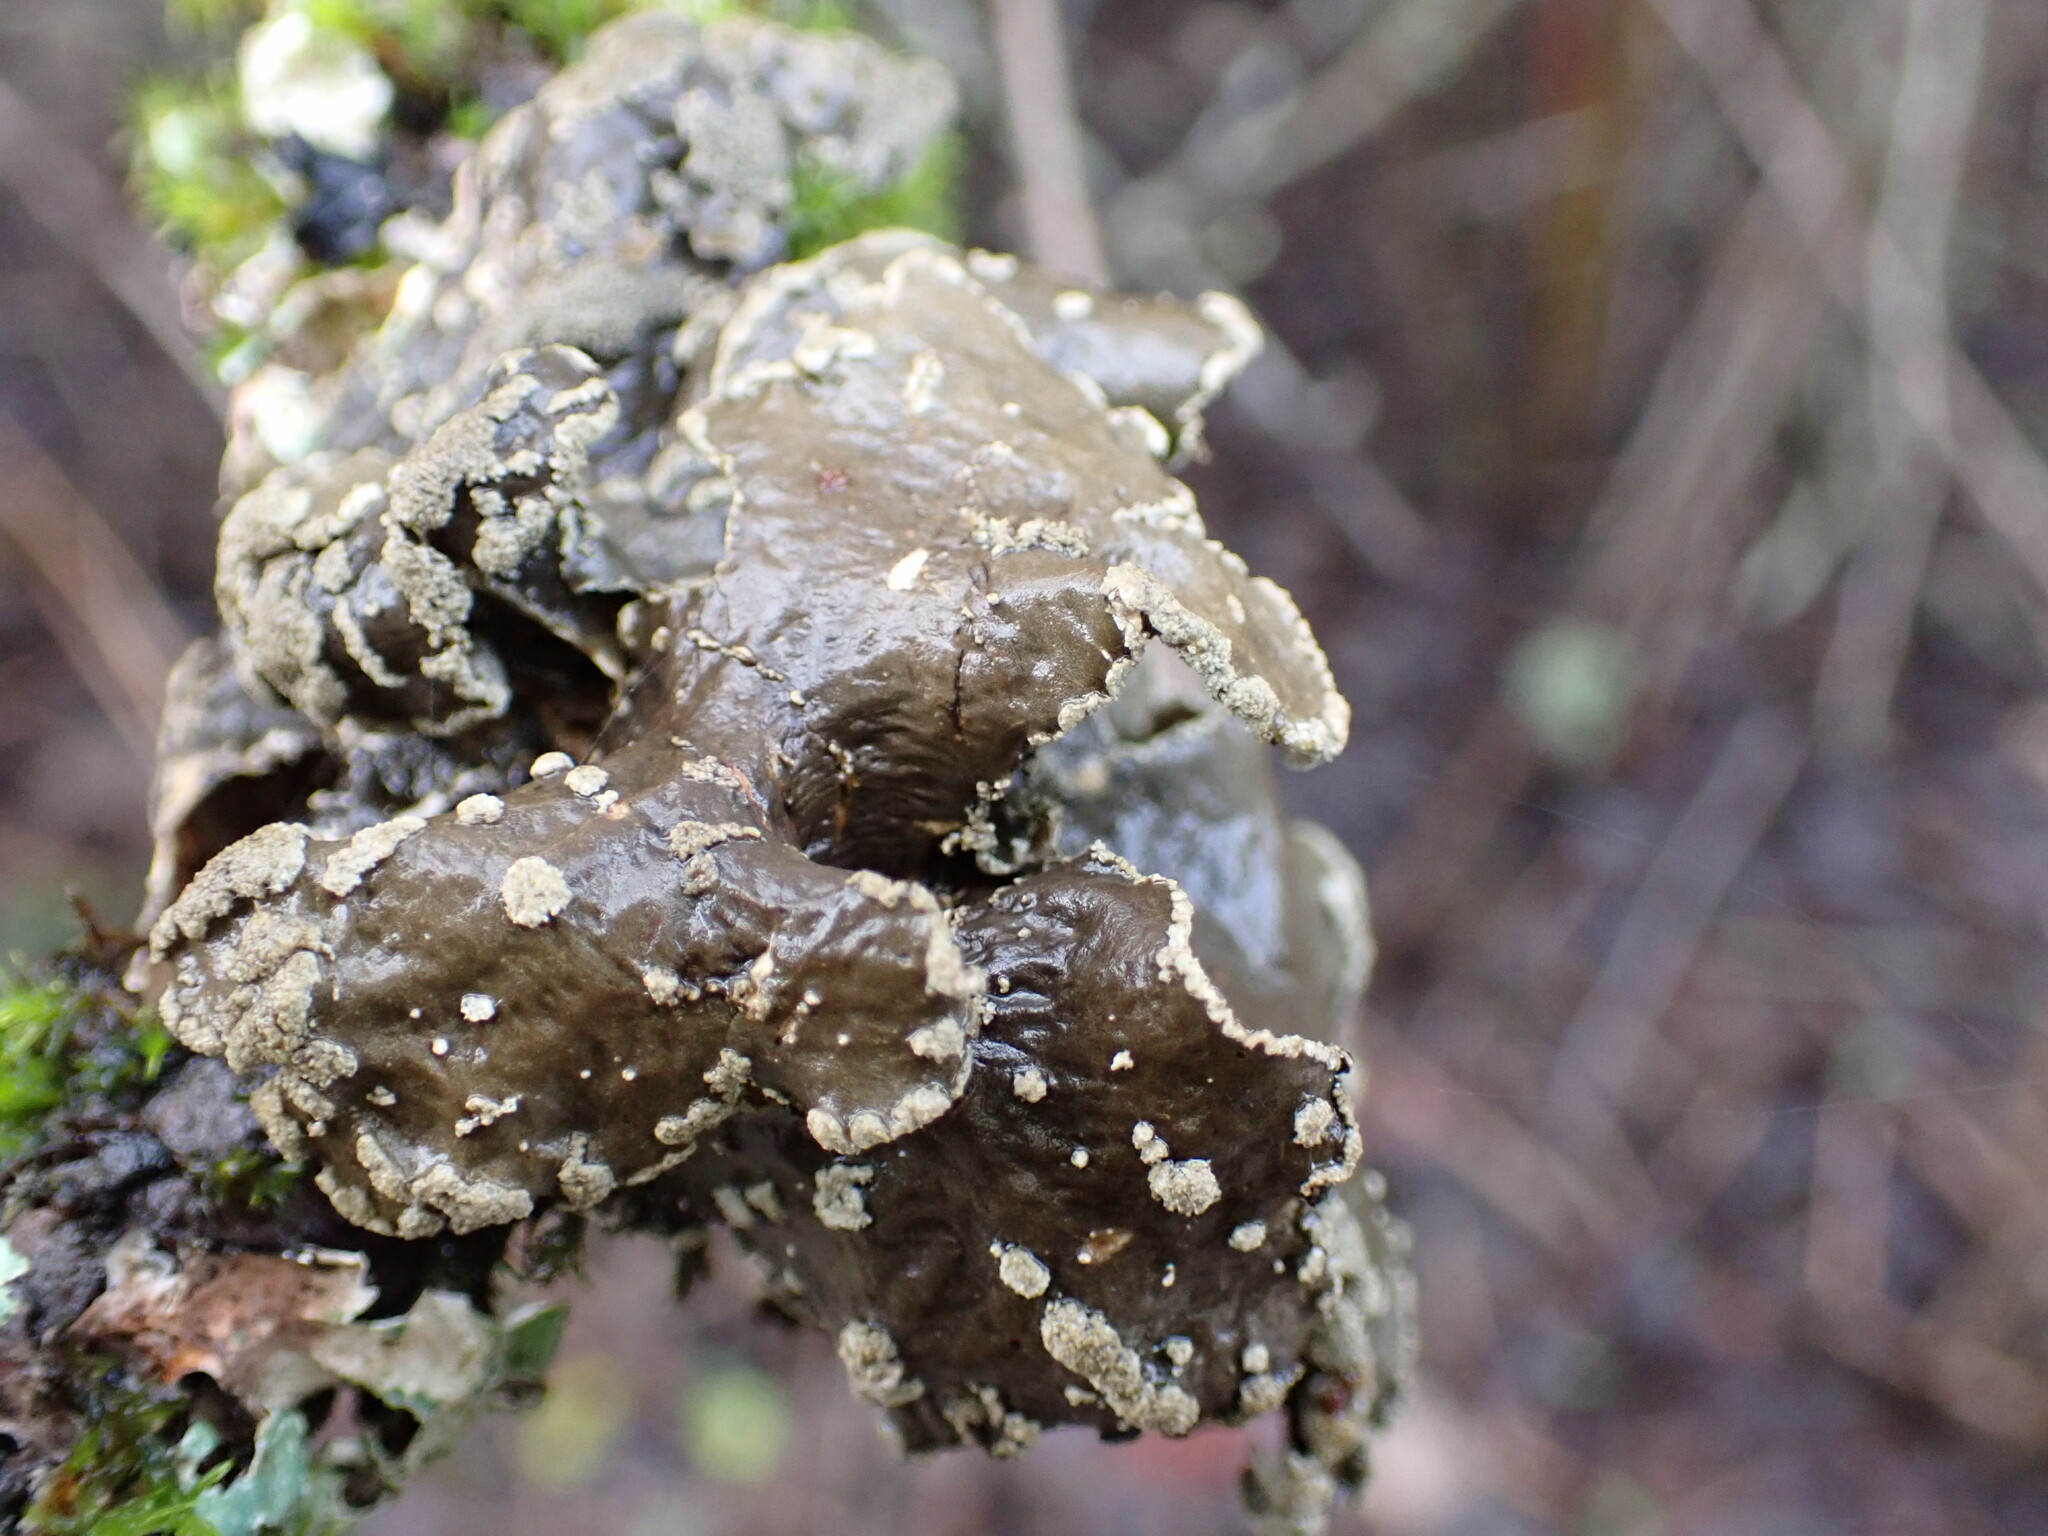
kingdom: Fungi
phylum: Ascomycota
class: Lecanoromycetes
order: Peltigerales
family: Lobariaceae
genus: Sticta
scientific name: Sticta limbata
